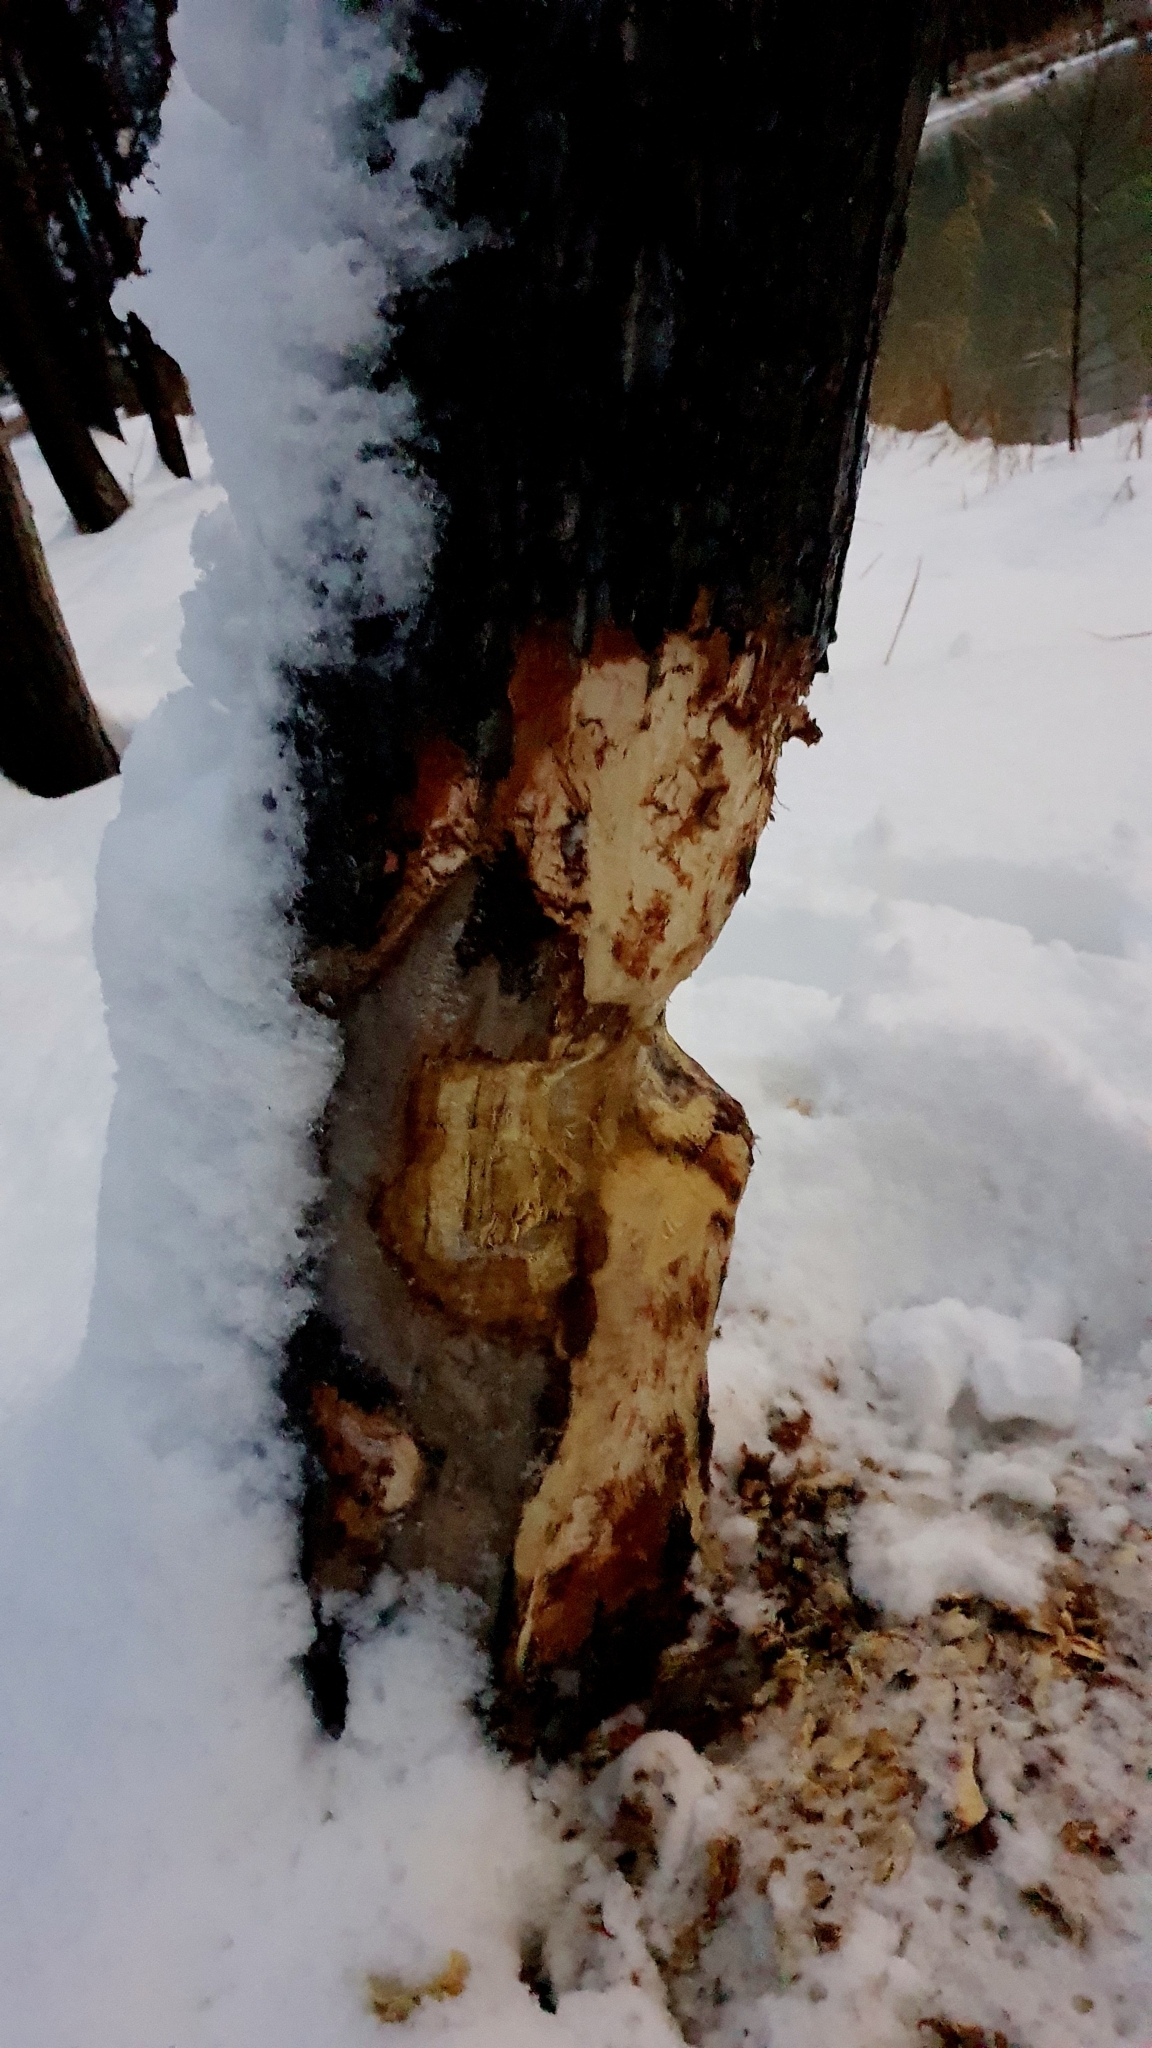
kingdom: Animalia
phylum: Chordata
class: Mammalia
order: Rodentia
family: Castoridae
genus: Castor
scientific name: Castor fiber
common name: Eurasian beaver
